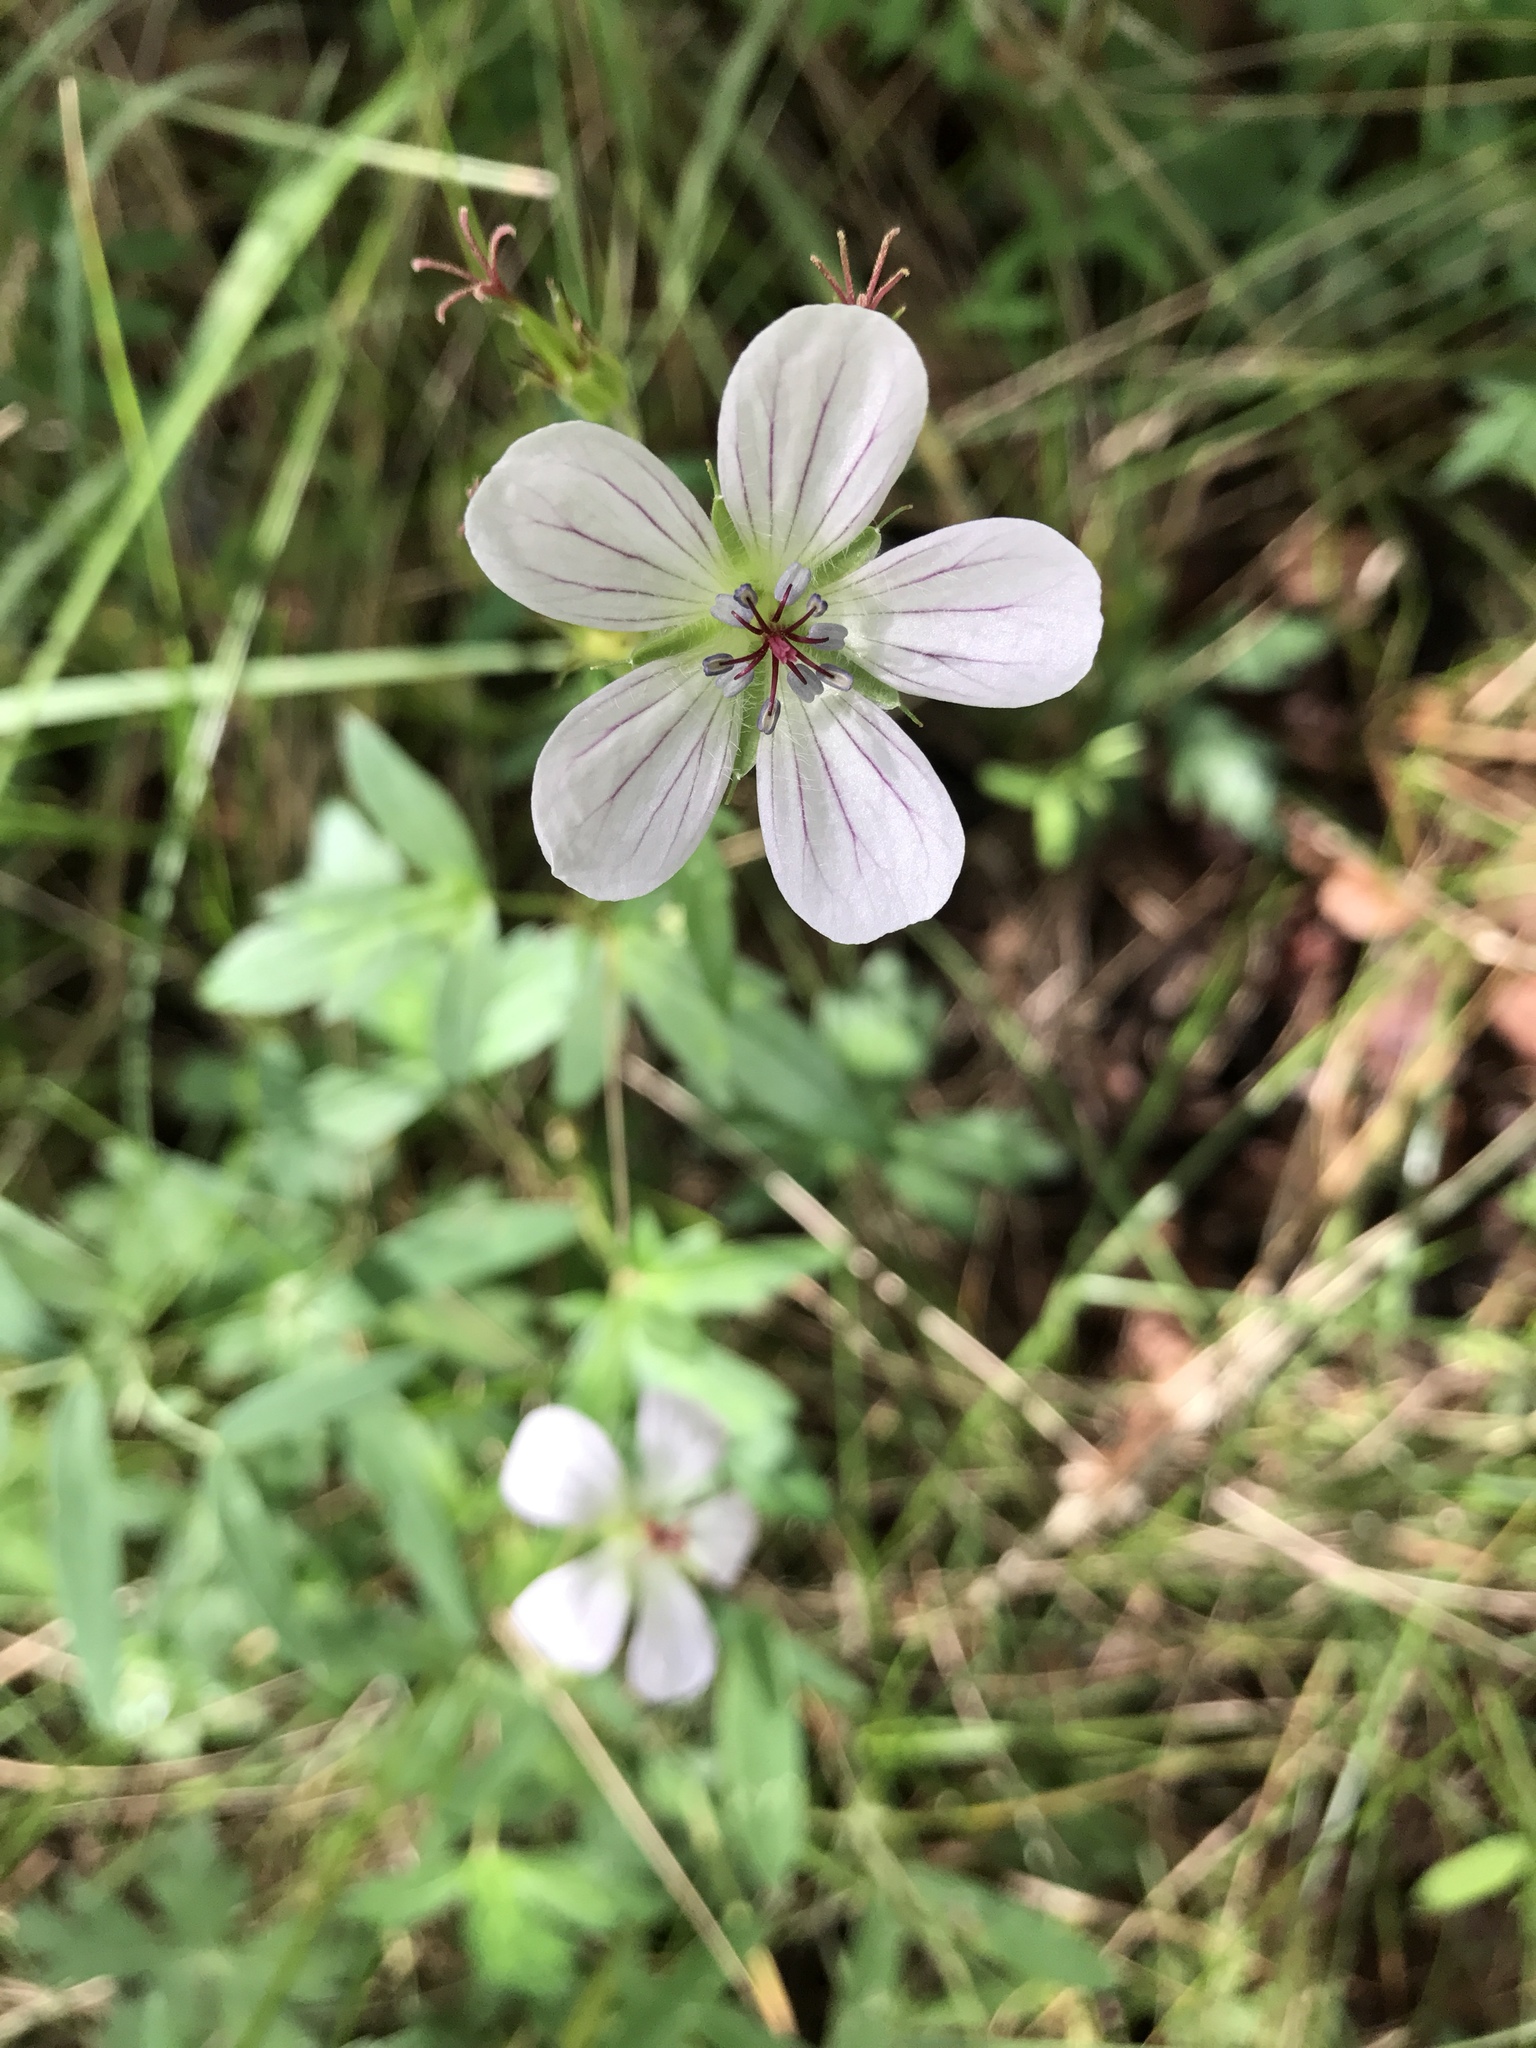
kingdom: Plantae
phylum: Tracheophyta
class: Magnoliopsida
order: Geraniales
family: Geraniaceae
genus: Geranium
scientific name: Geranium richardsonii
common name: Richardson's crane's-bill
